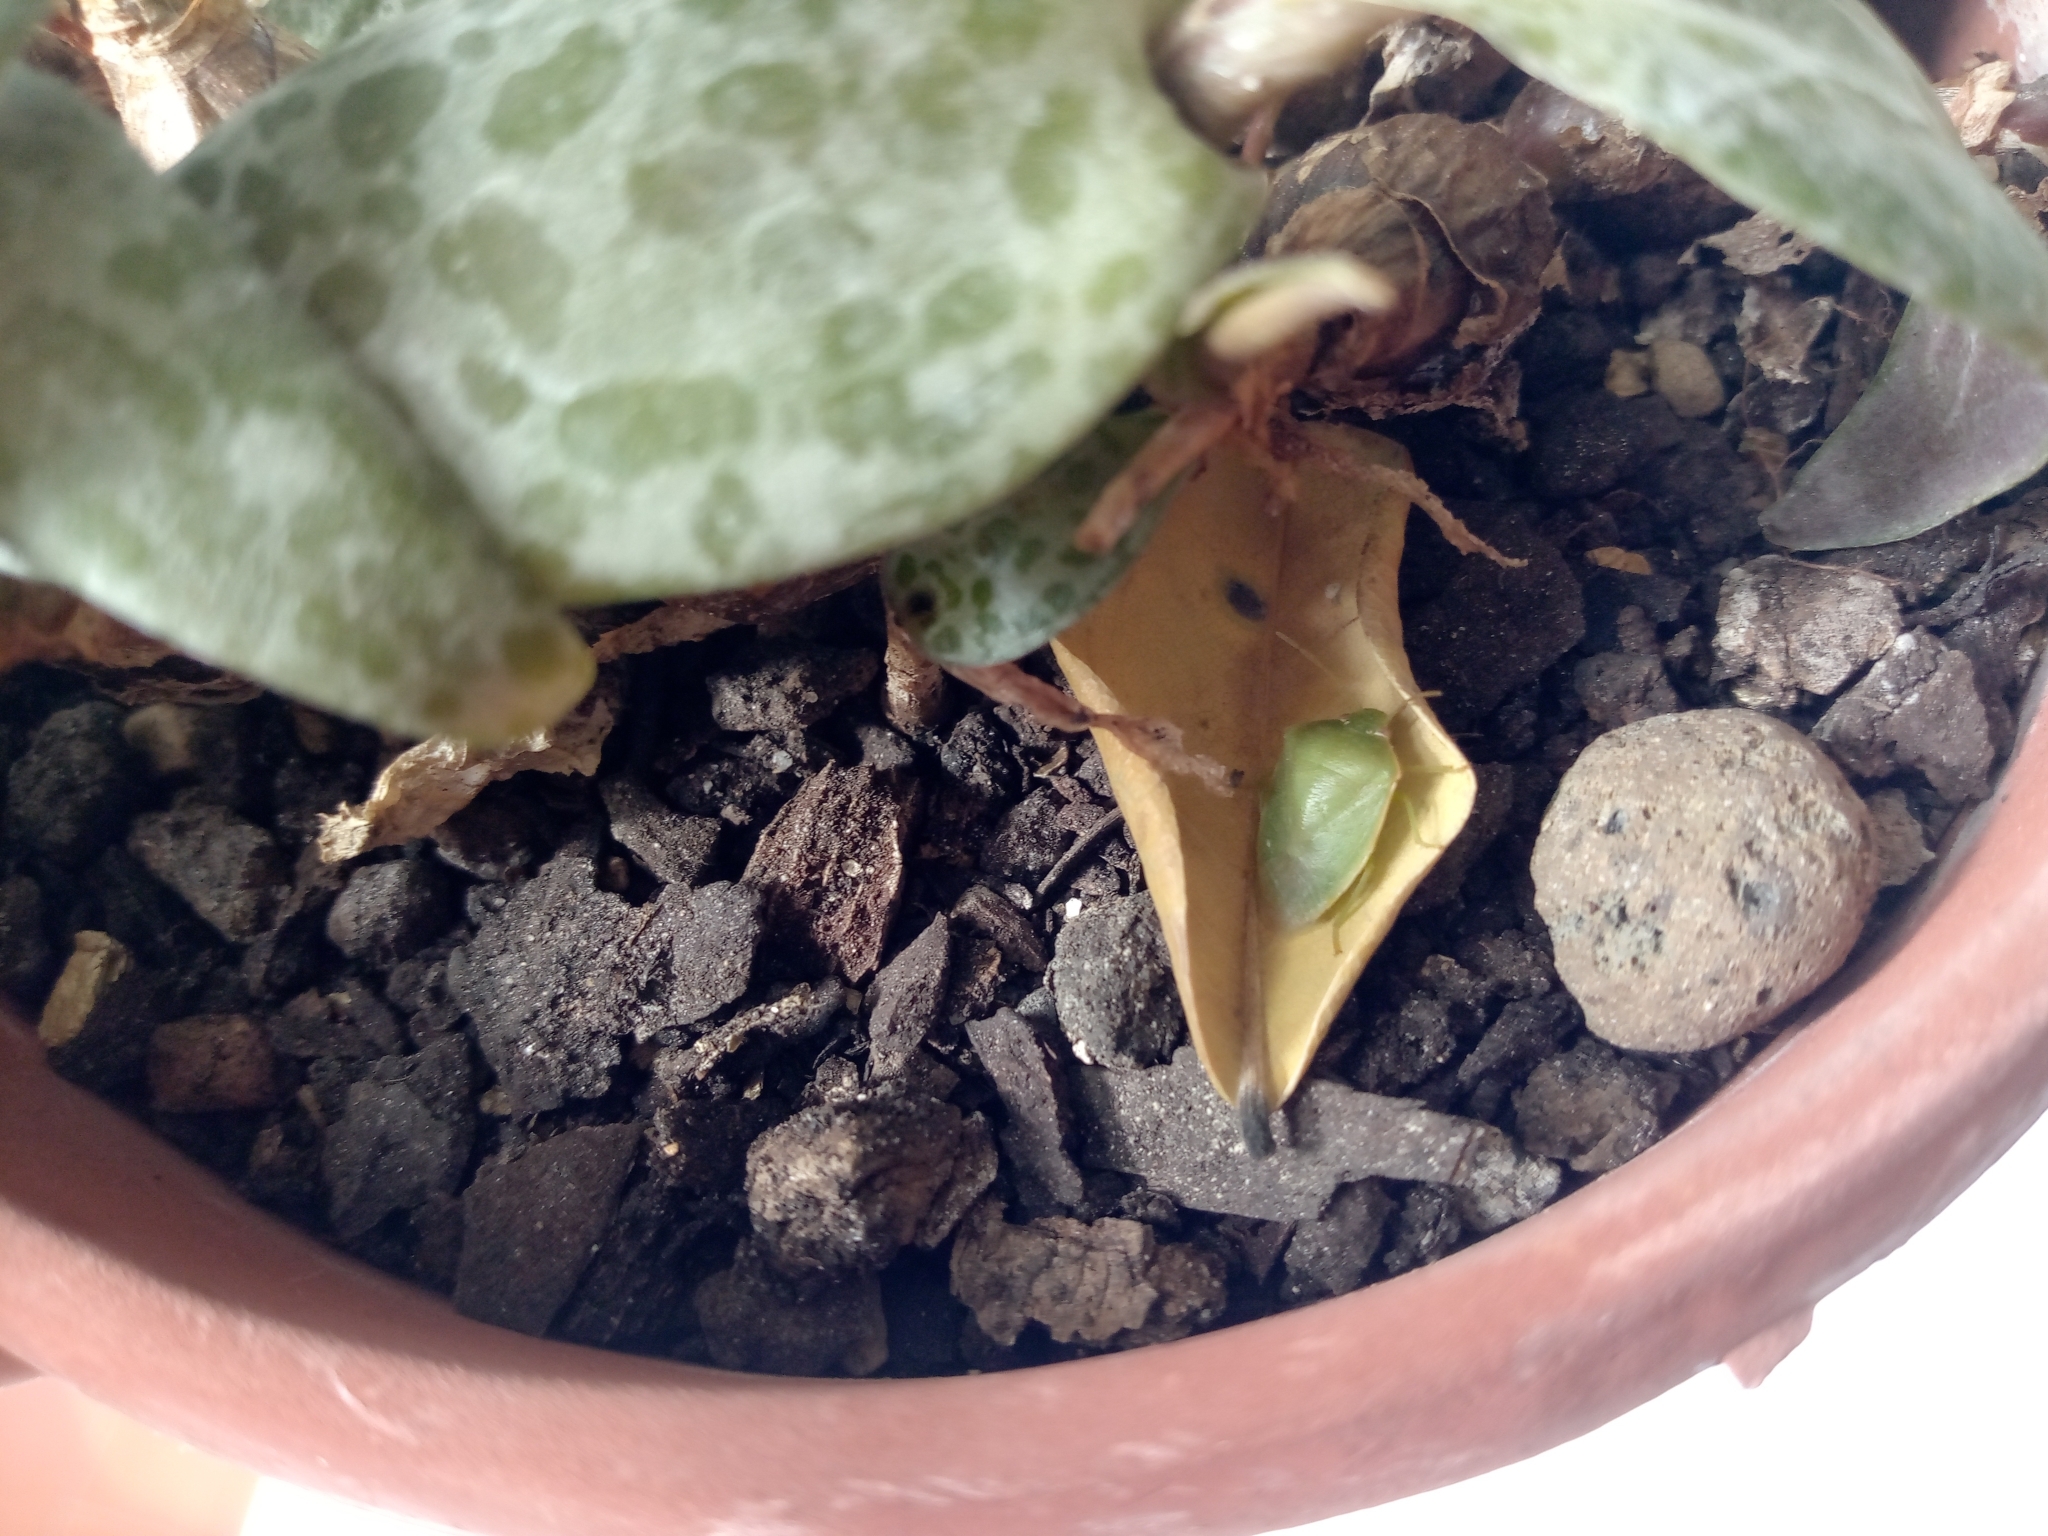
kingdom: Animalia
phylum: Arthropoda
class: Insecta
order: Hemiptera
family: Pentatomidae
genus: Acrosternum
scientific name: Acrosternum millierei
